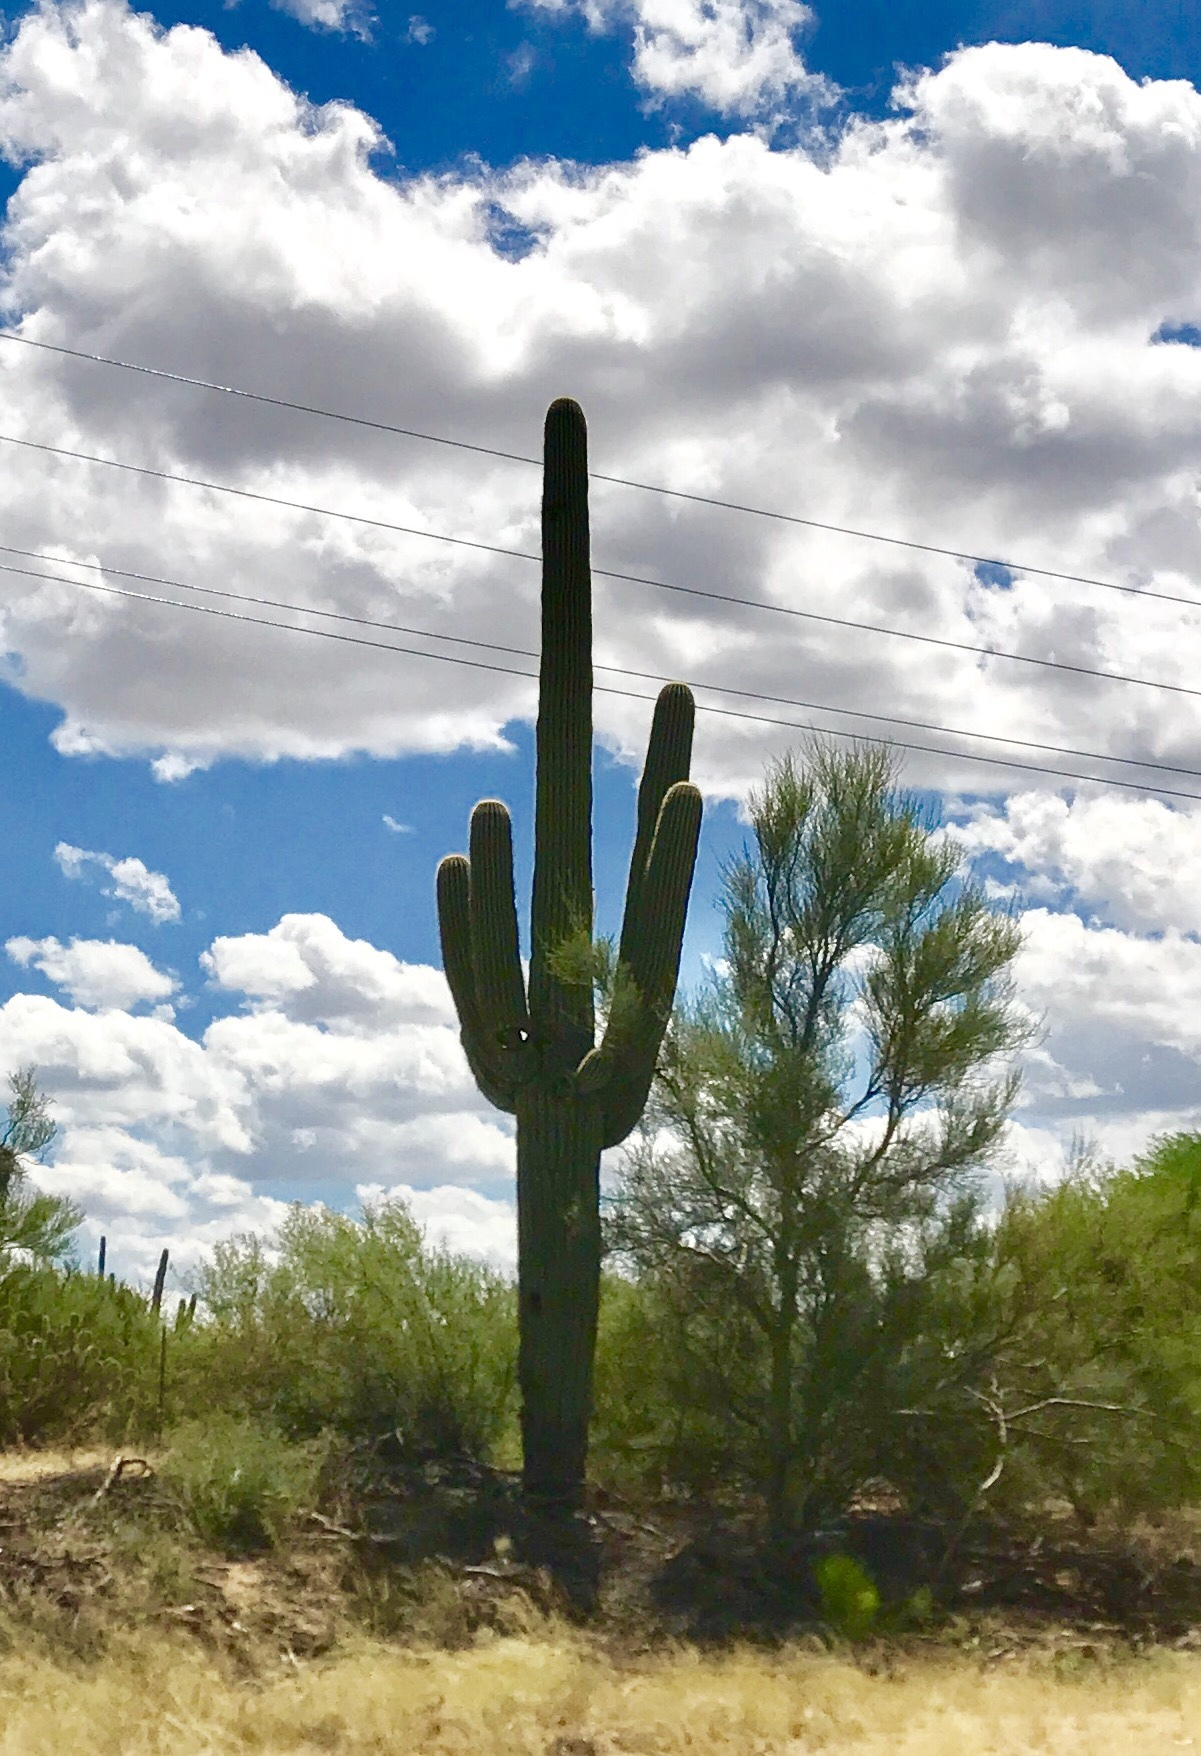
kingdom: Plantae
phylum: Tracheophyta
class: Magnoliopsida
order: Caryophyllales
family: Cactaceae
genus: Carnegiea
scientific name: Carnegiea gigantea
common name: Saguaro
